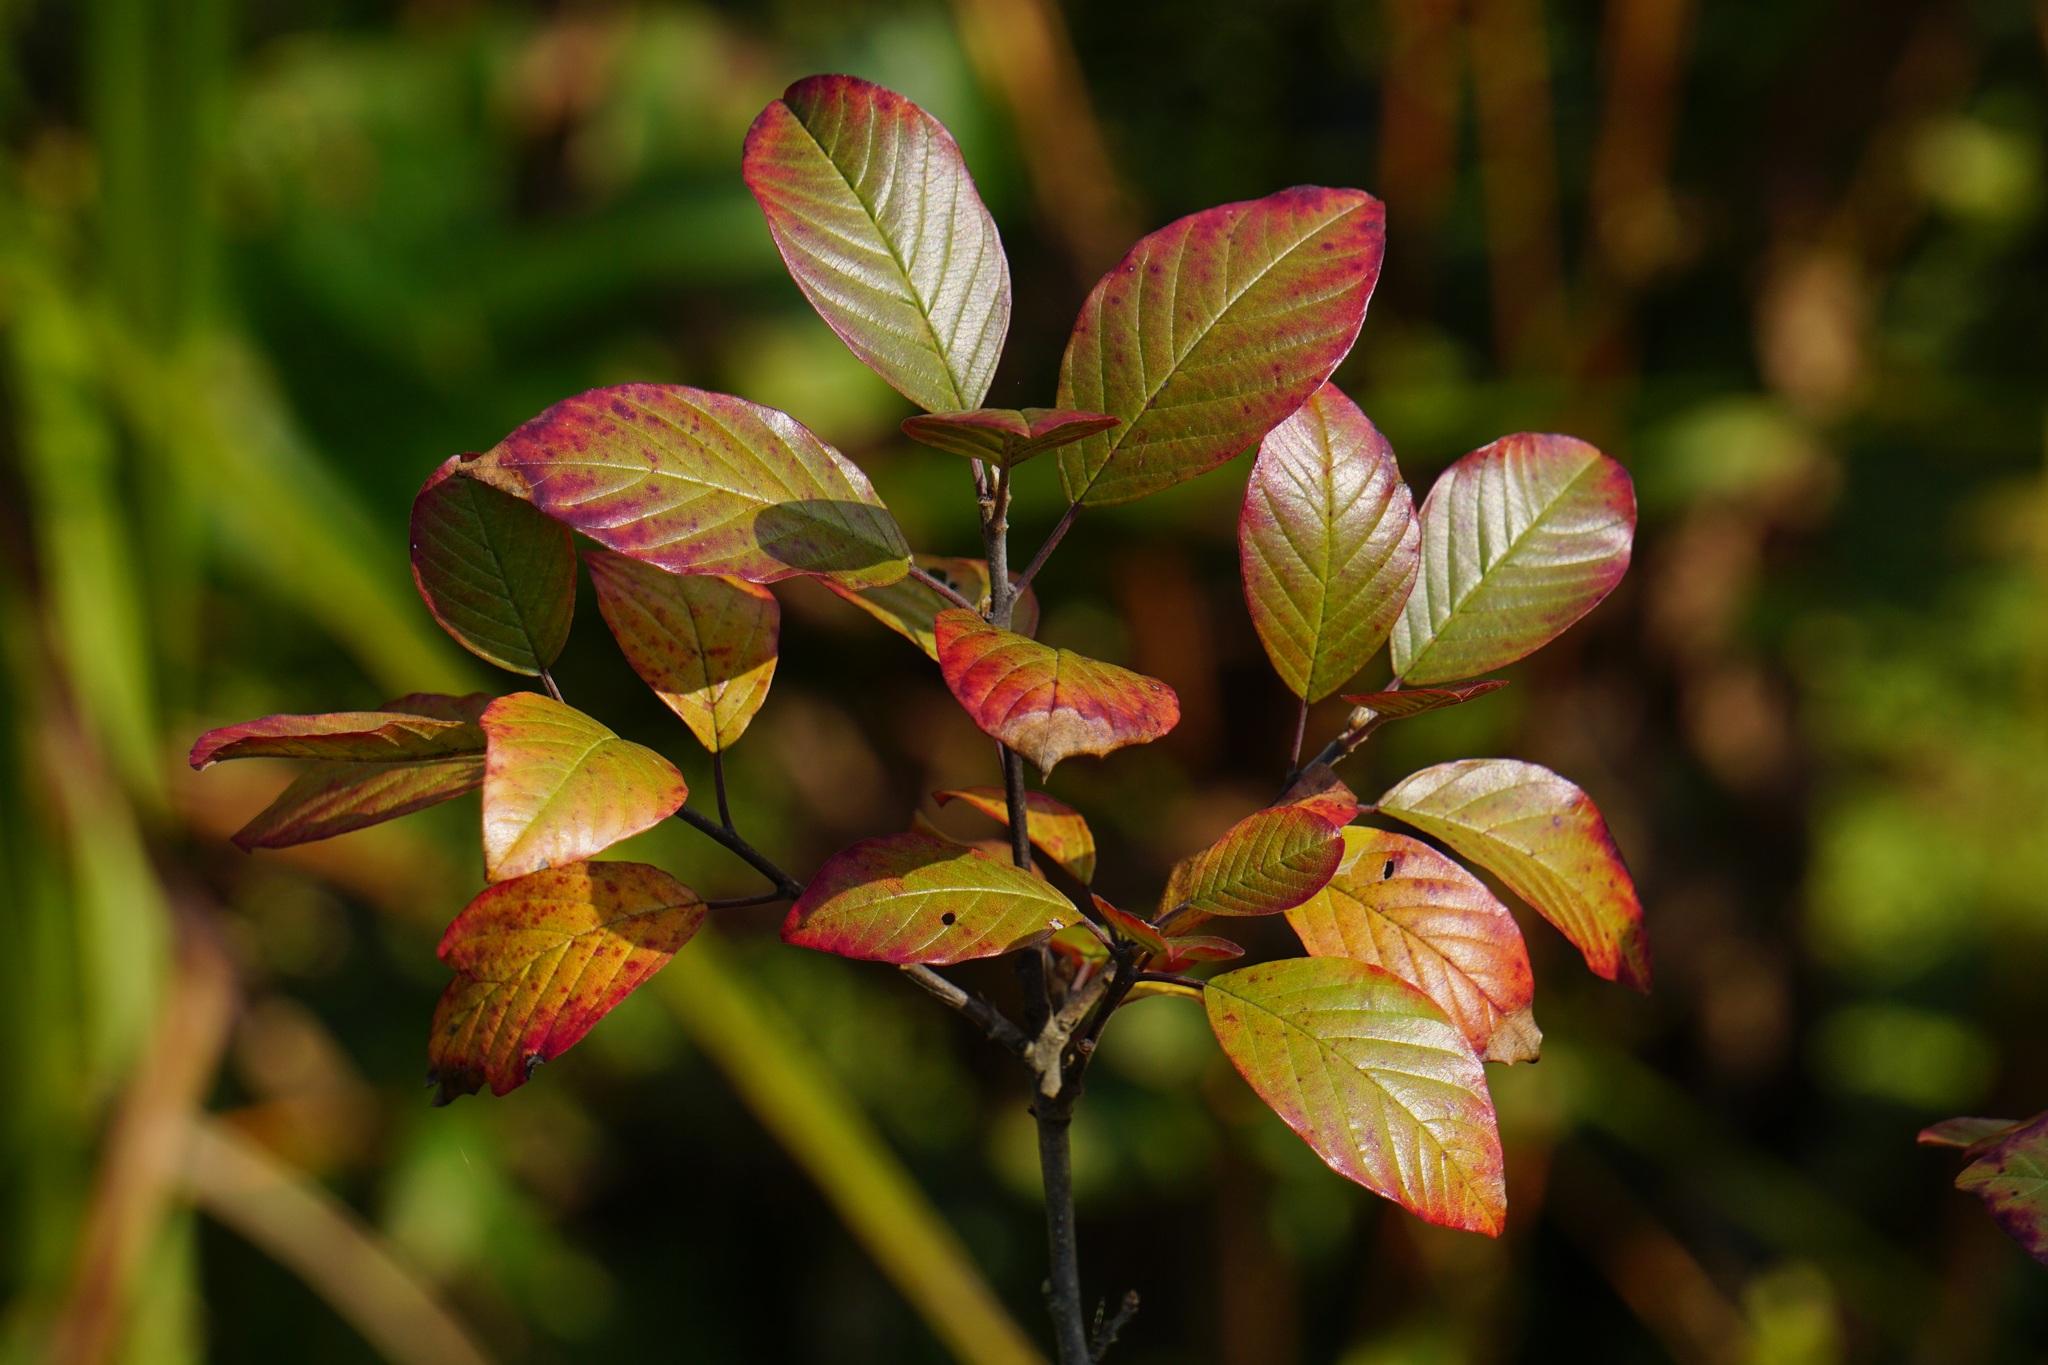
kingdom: Plantae
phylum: Tracheophyta
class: Magnoliopsida
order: Rosales
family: Rhamnaceae
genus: Frangula
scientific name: Frangula alnus
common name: Alder buckthorn
